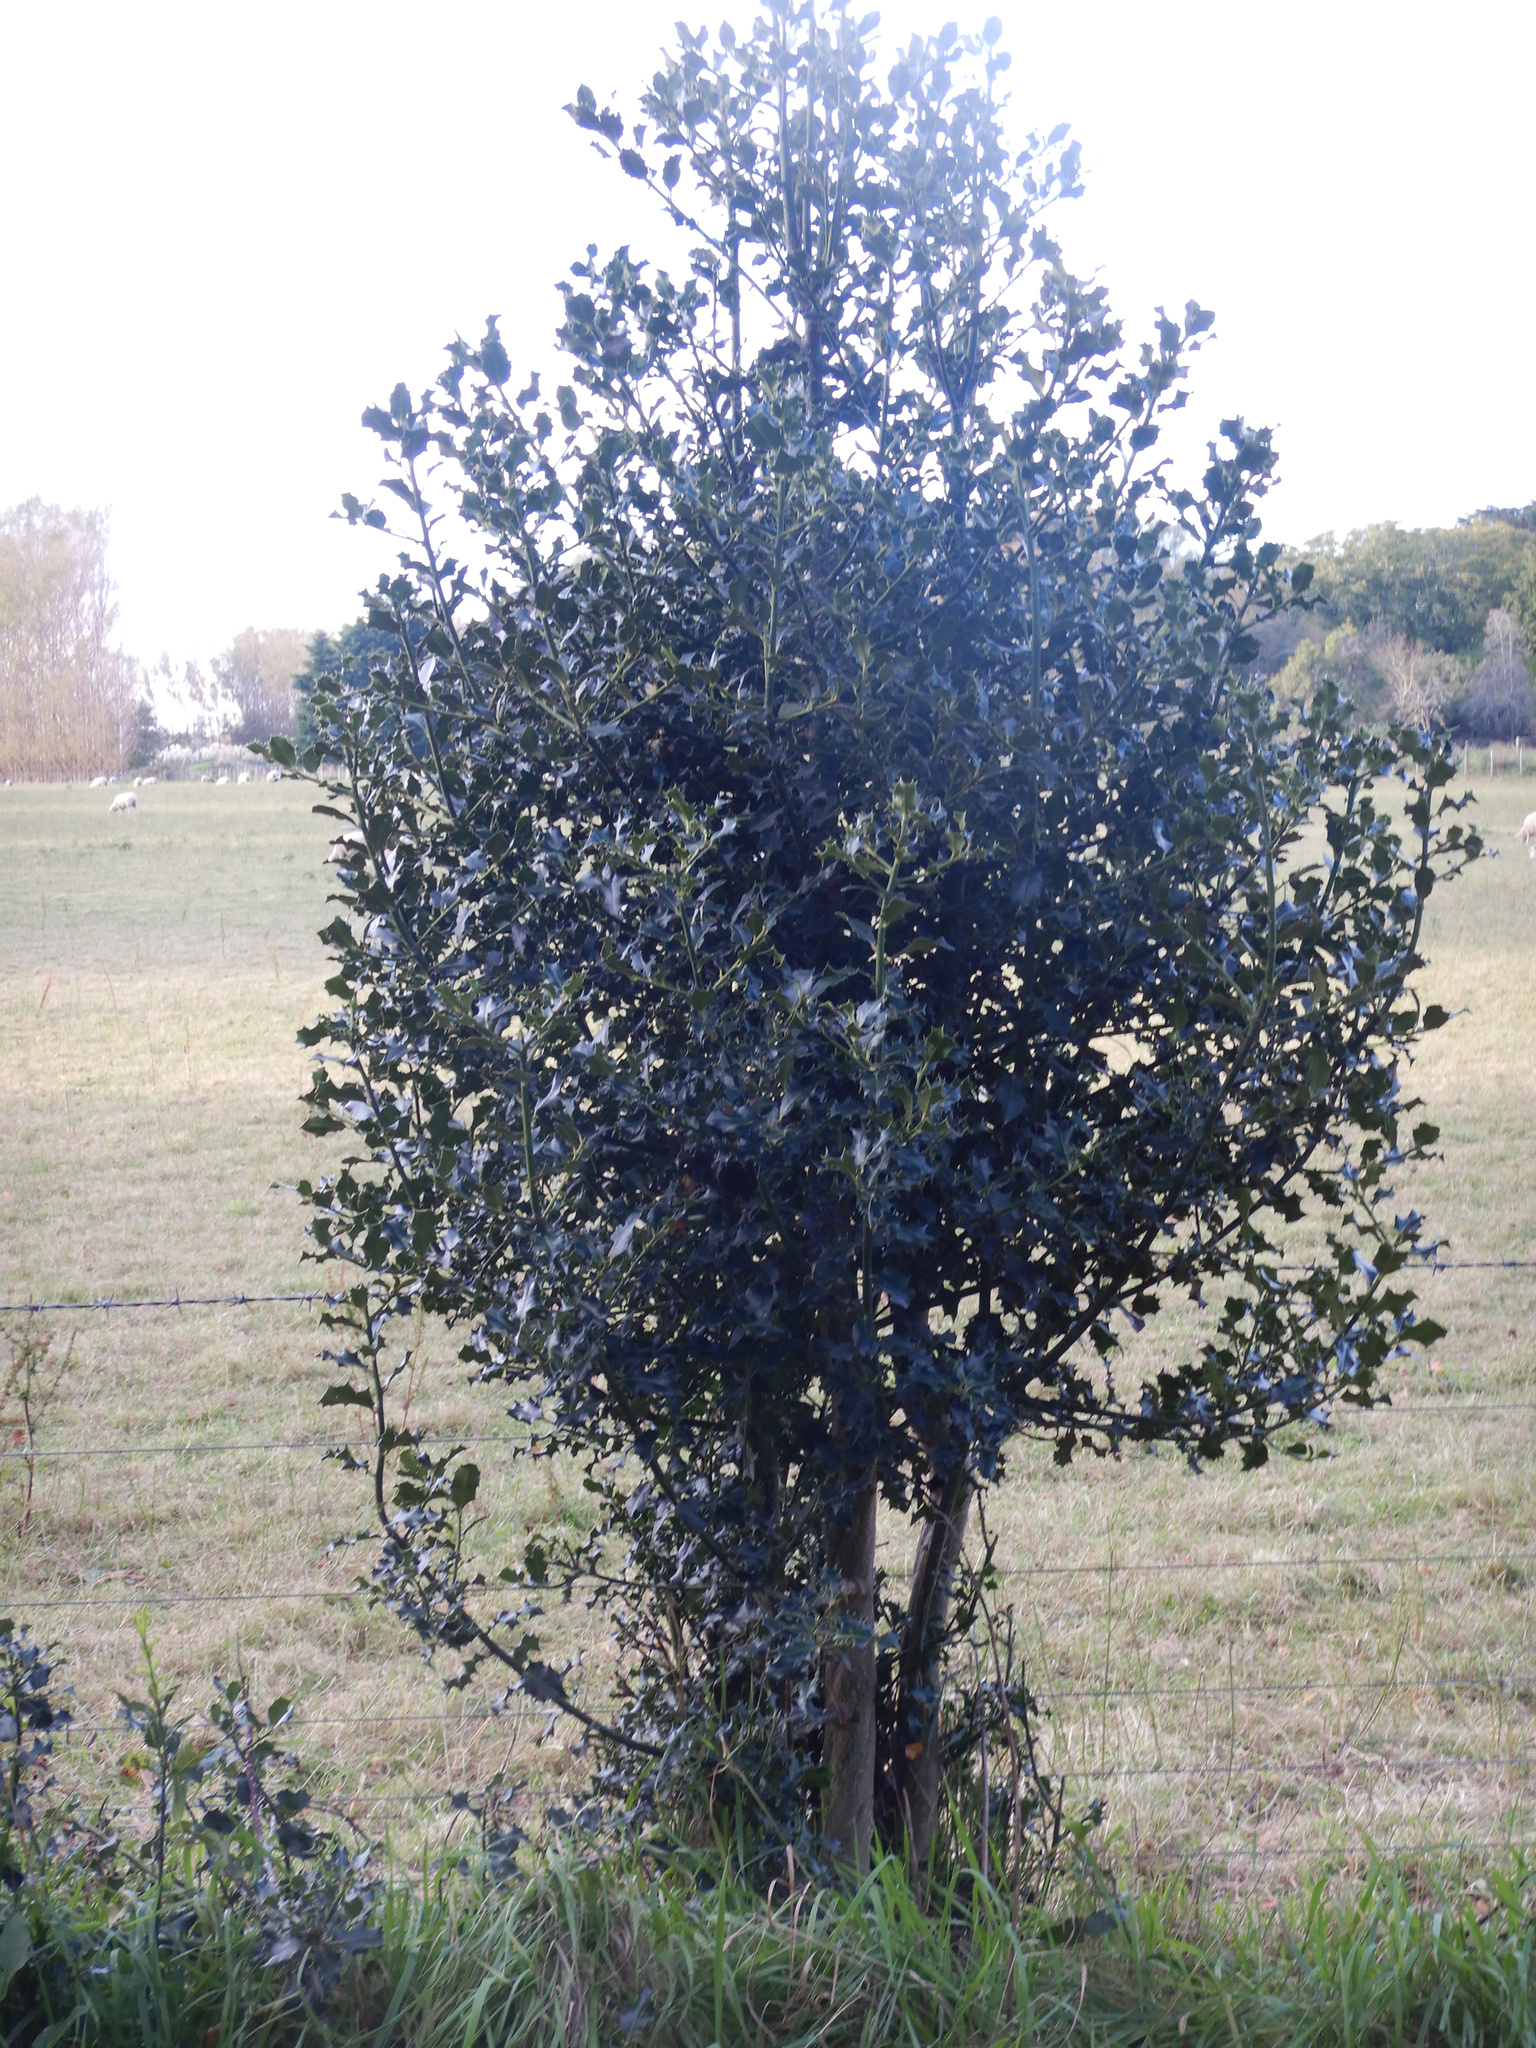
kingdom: Plantae
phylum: Tracheophyta
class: Magnoliopsida
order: Aquifoliales
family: Aquifoliaceae
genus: Ilex
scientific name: Ilex aquifolium
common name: English holly
